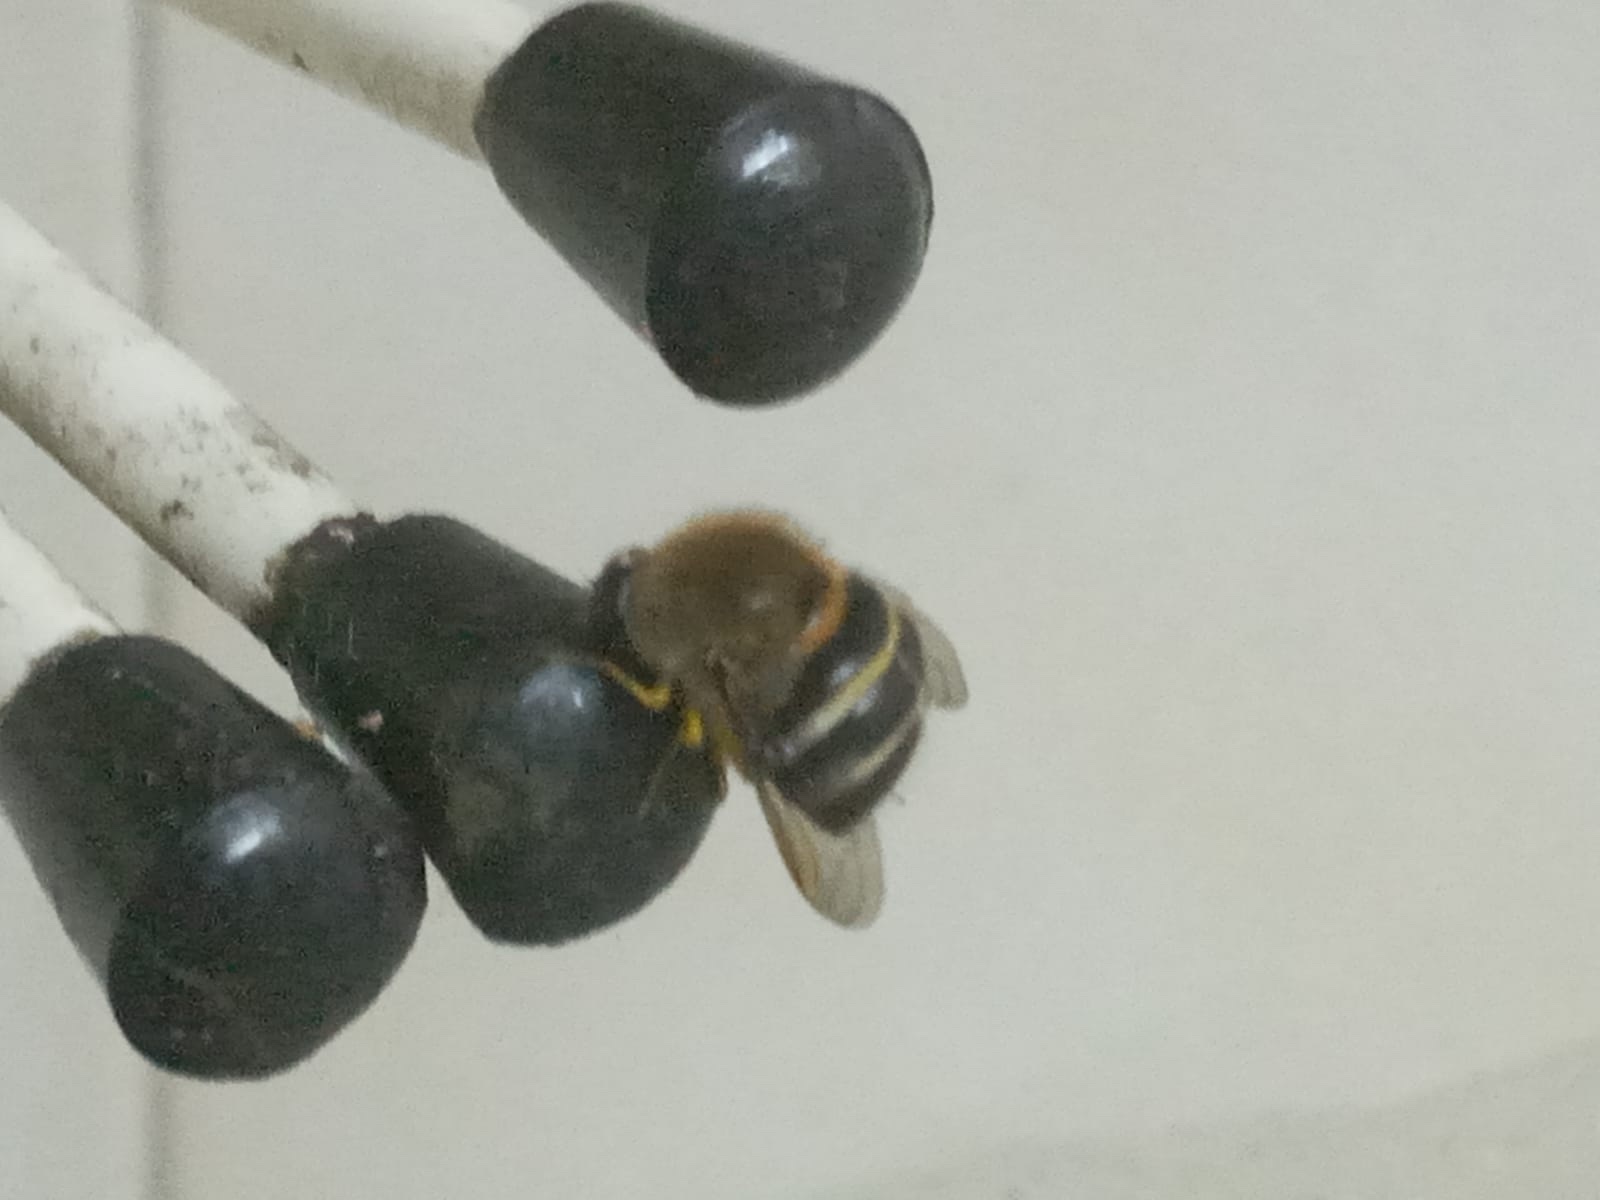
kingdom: Animalia
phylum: Arthropoda
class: Insecta
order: Diptera
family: Acroceridae
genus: Psilodera
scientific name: Psilodera confusa
